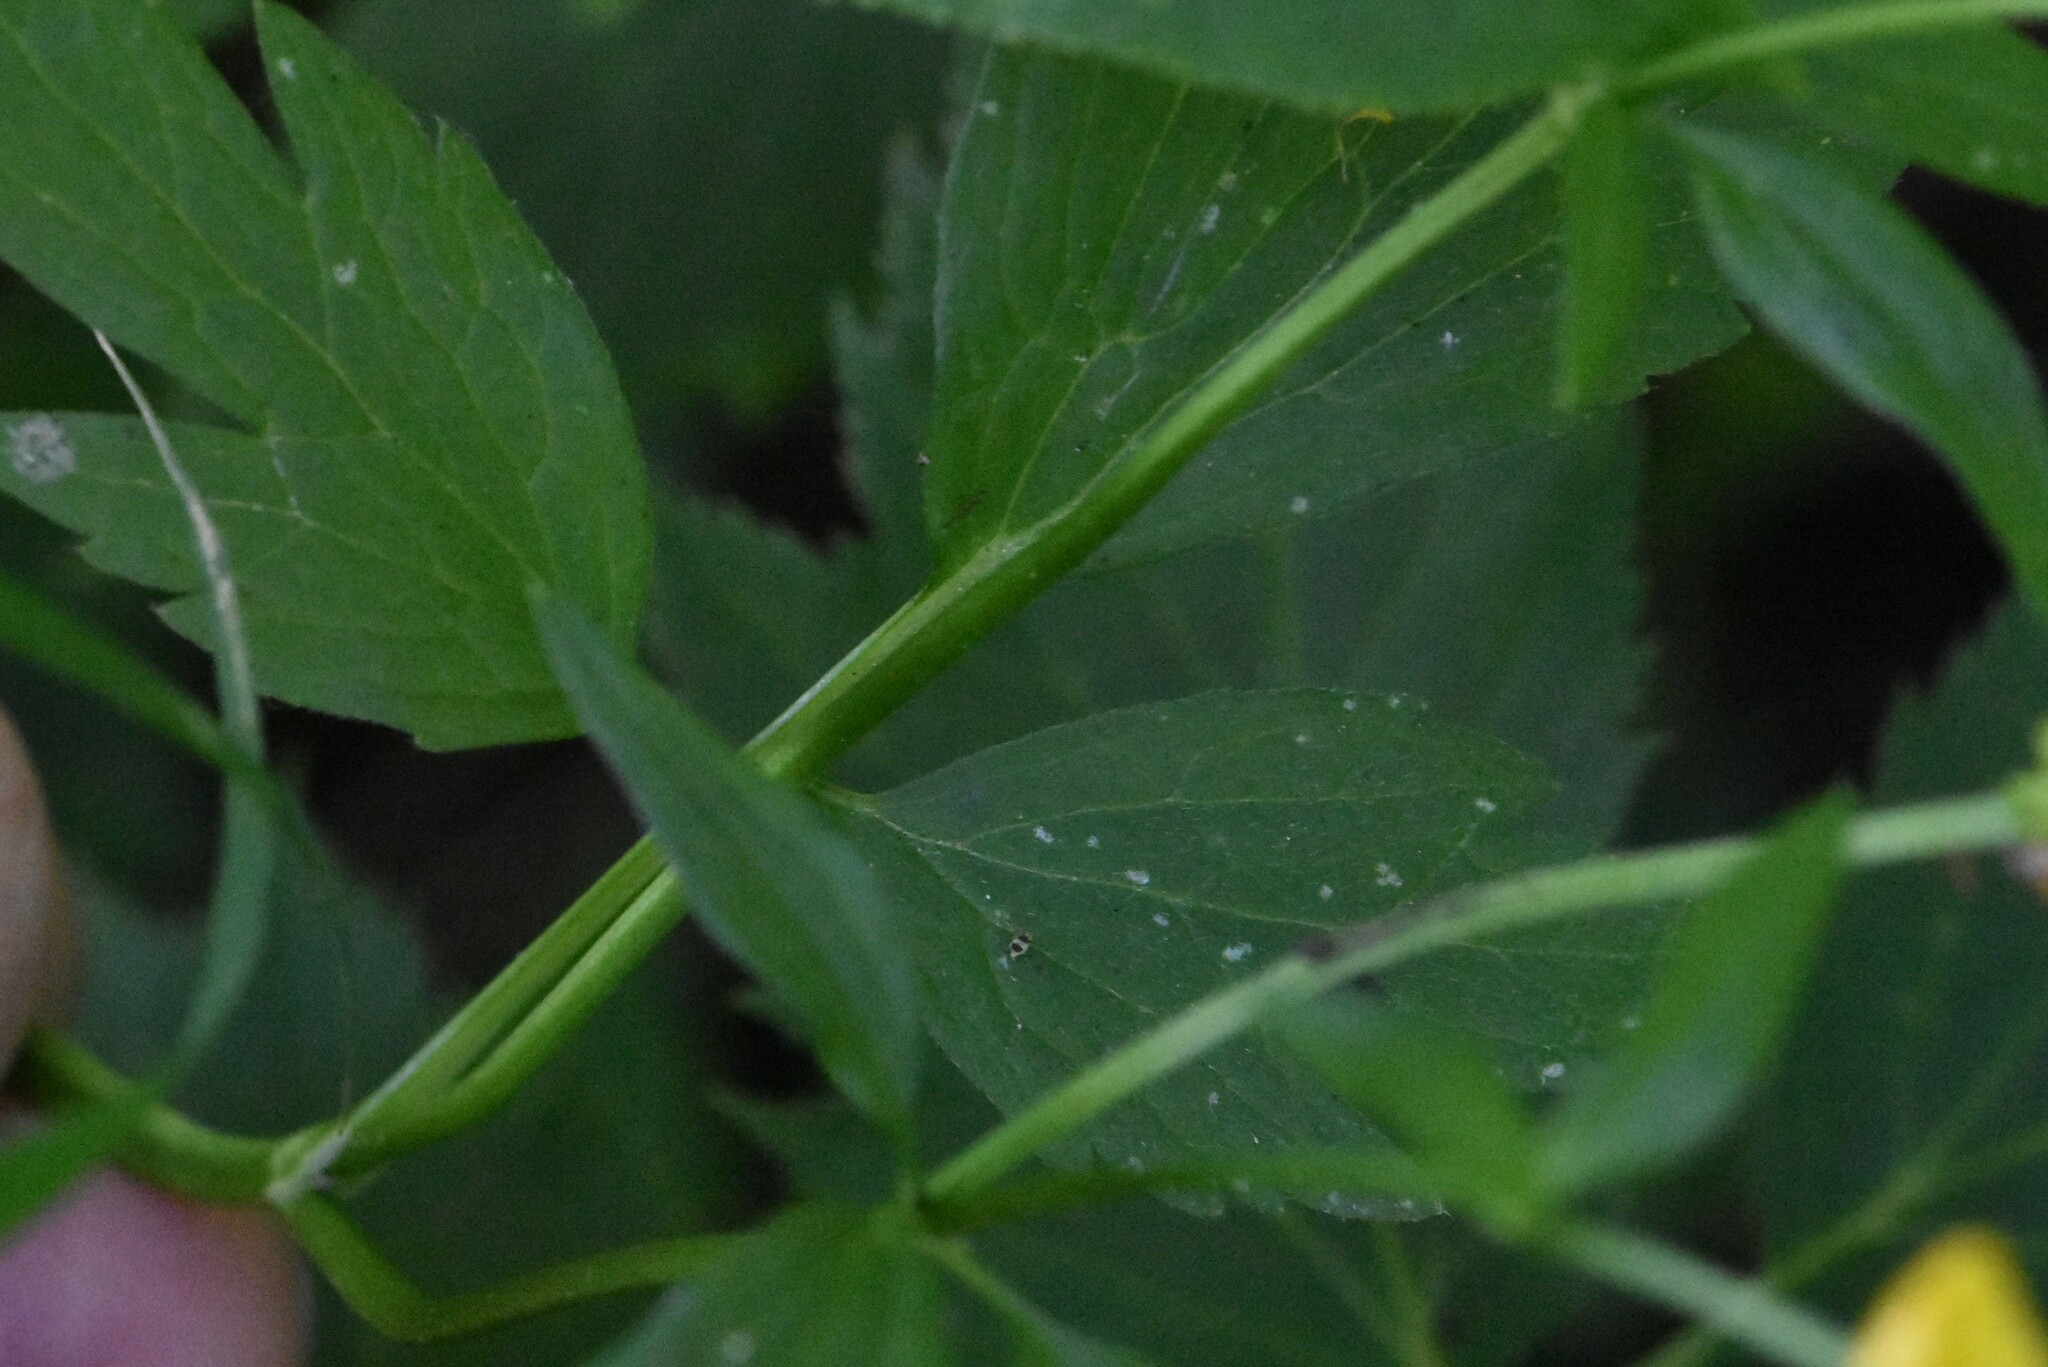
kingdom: Plantae
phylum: Tracheophyta
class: Magnoliopsida
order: Ranunculales
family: Ranunculaceae
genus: Ranunculus
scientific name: Ranunculus repens
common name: Creeping buttercup
